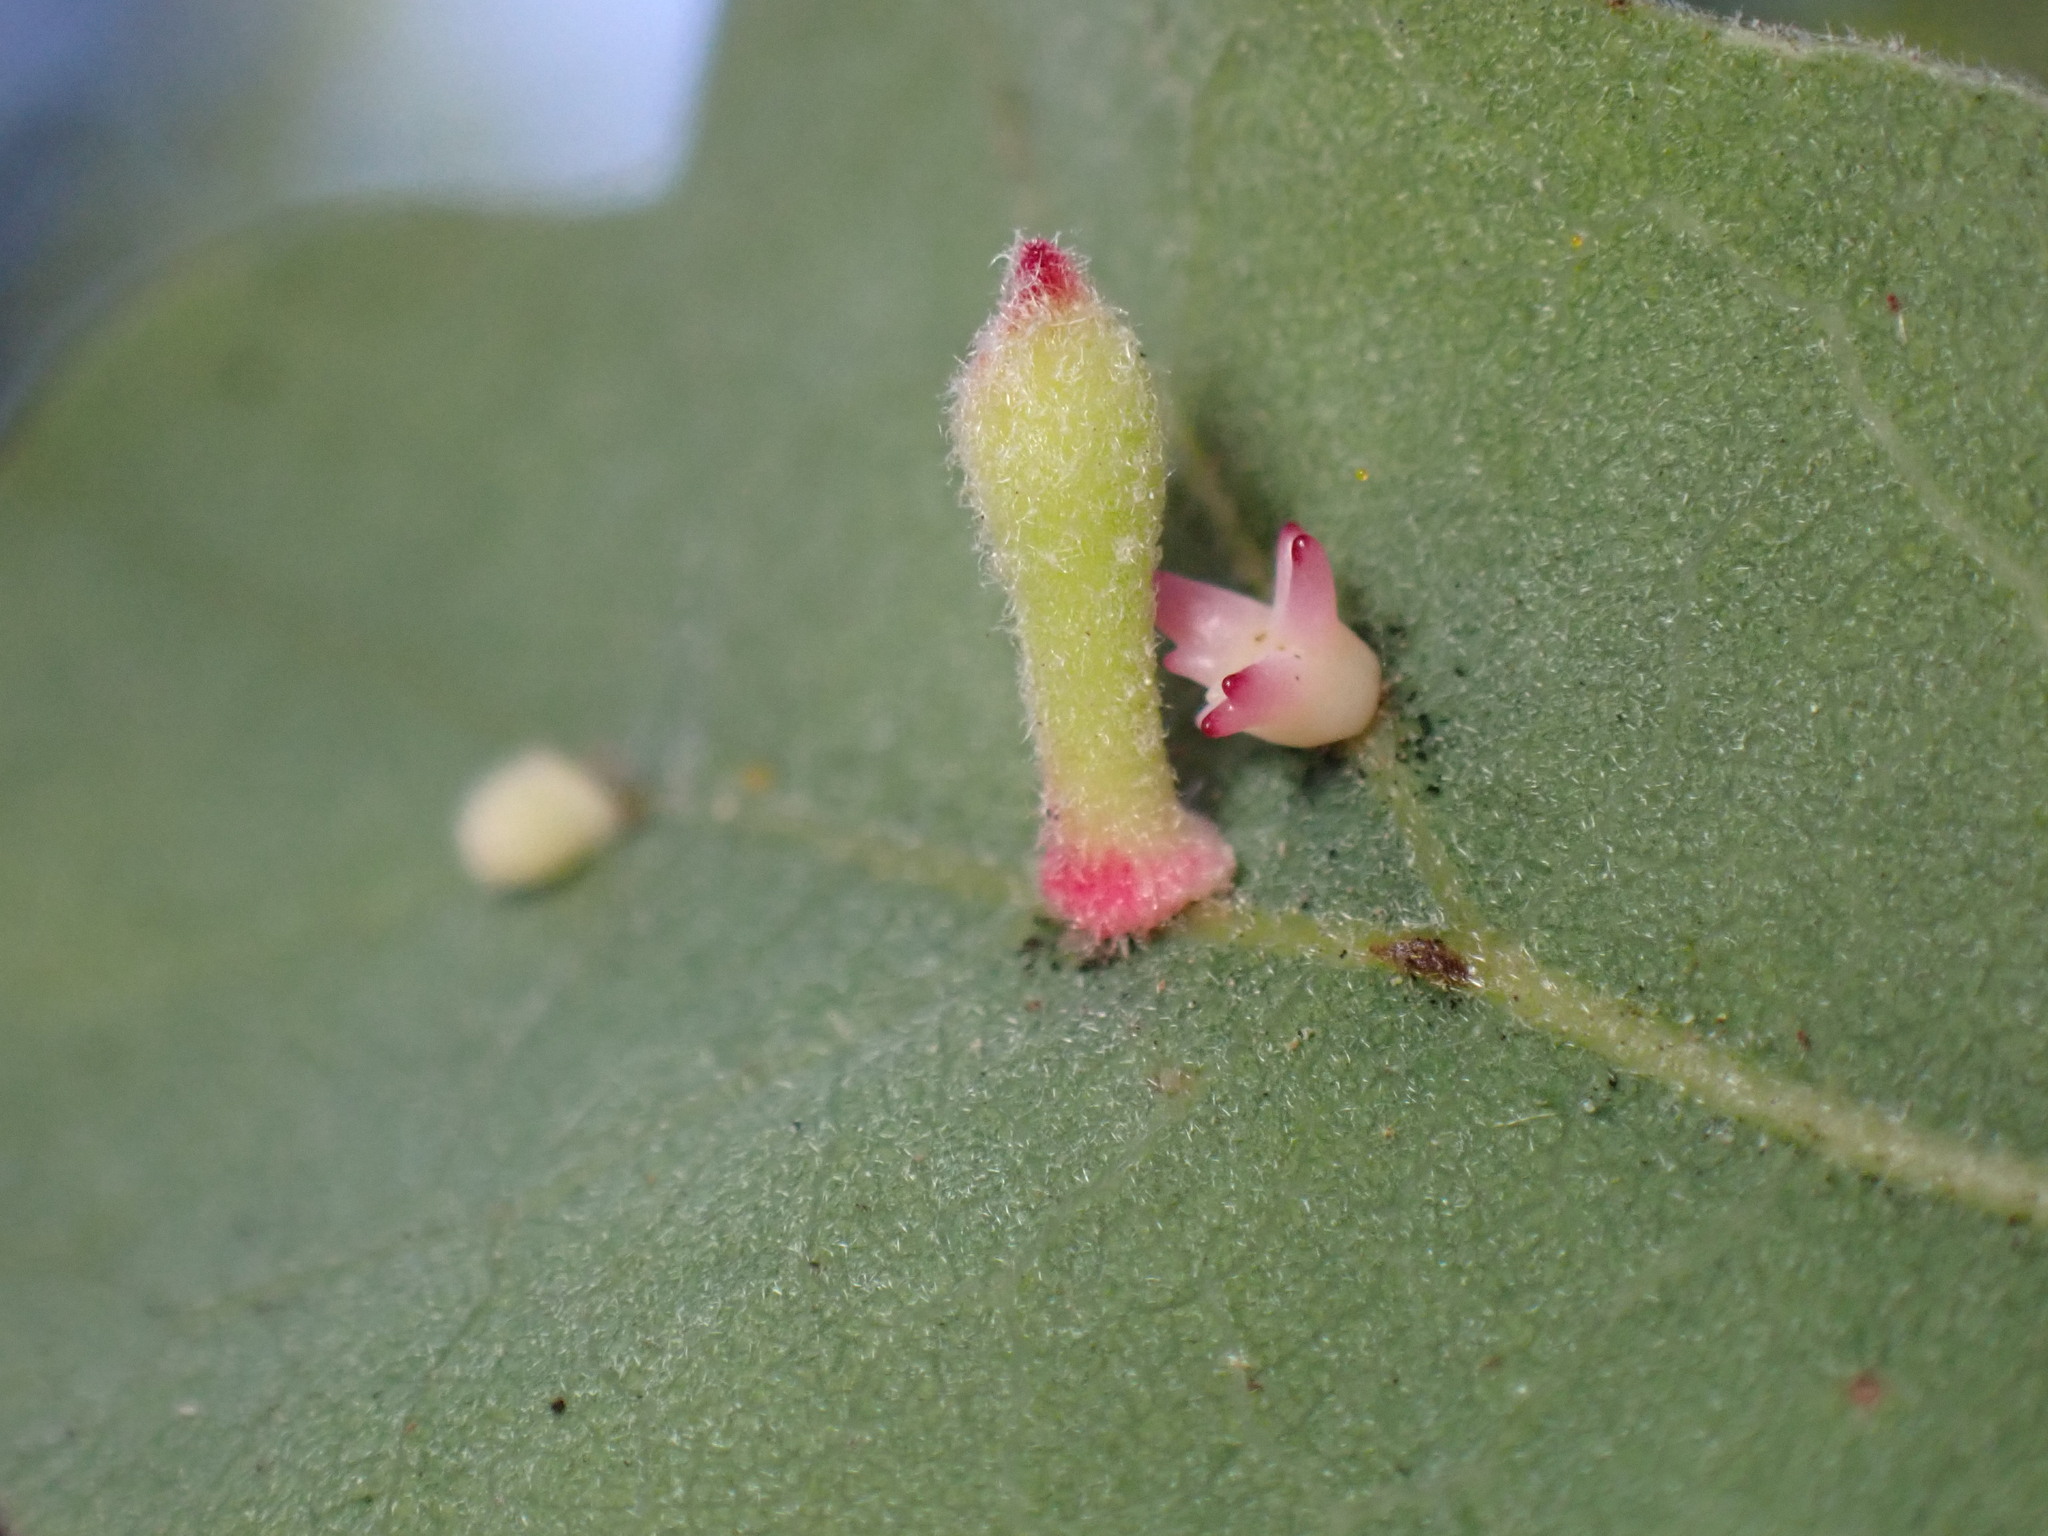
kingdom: Animalia
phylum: Arthropoda
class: Insecta
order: Hymenoptera
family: Cynipidae
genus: Atrusca
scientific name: Atrusca
